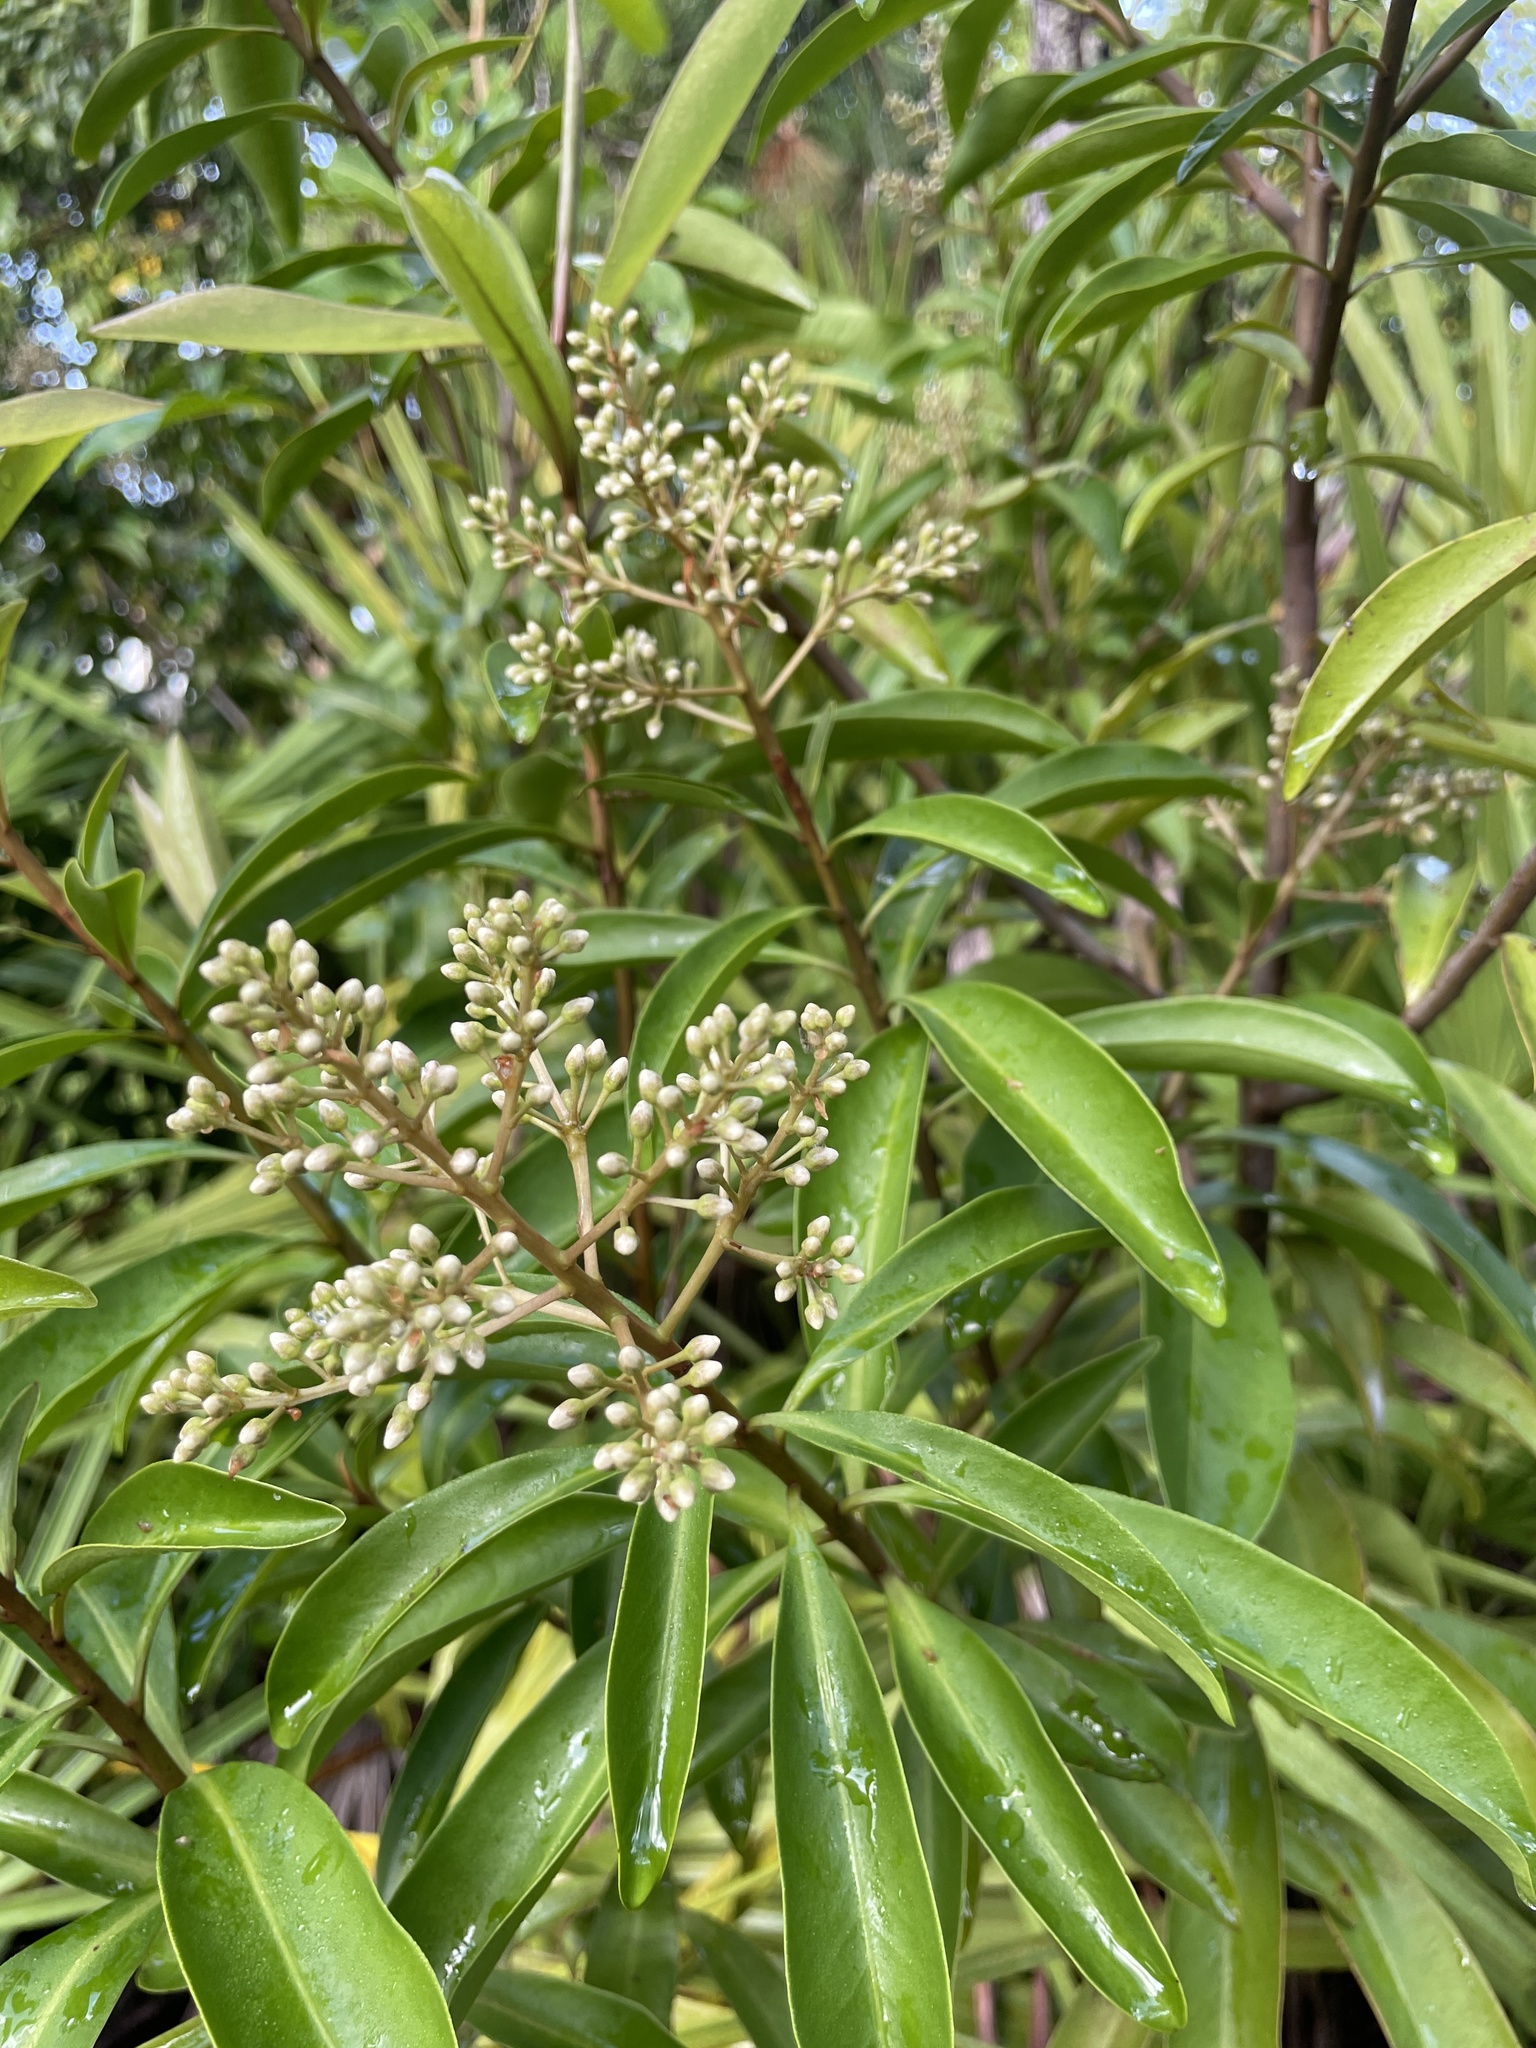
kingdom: Plantae
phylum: Tracheophyta
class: Magnoliopsida
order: Ericales
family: Primulaceae
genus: Ardisia
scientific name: Ardisia escallonioides
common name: Island marlberry
